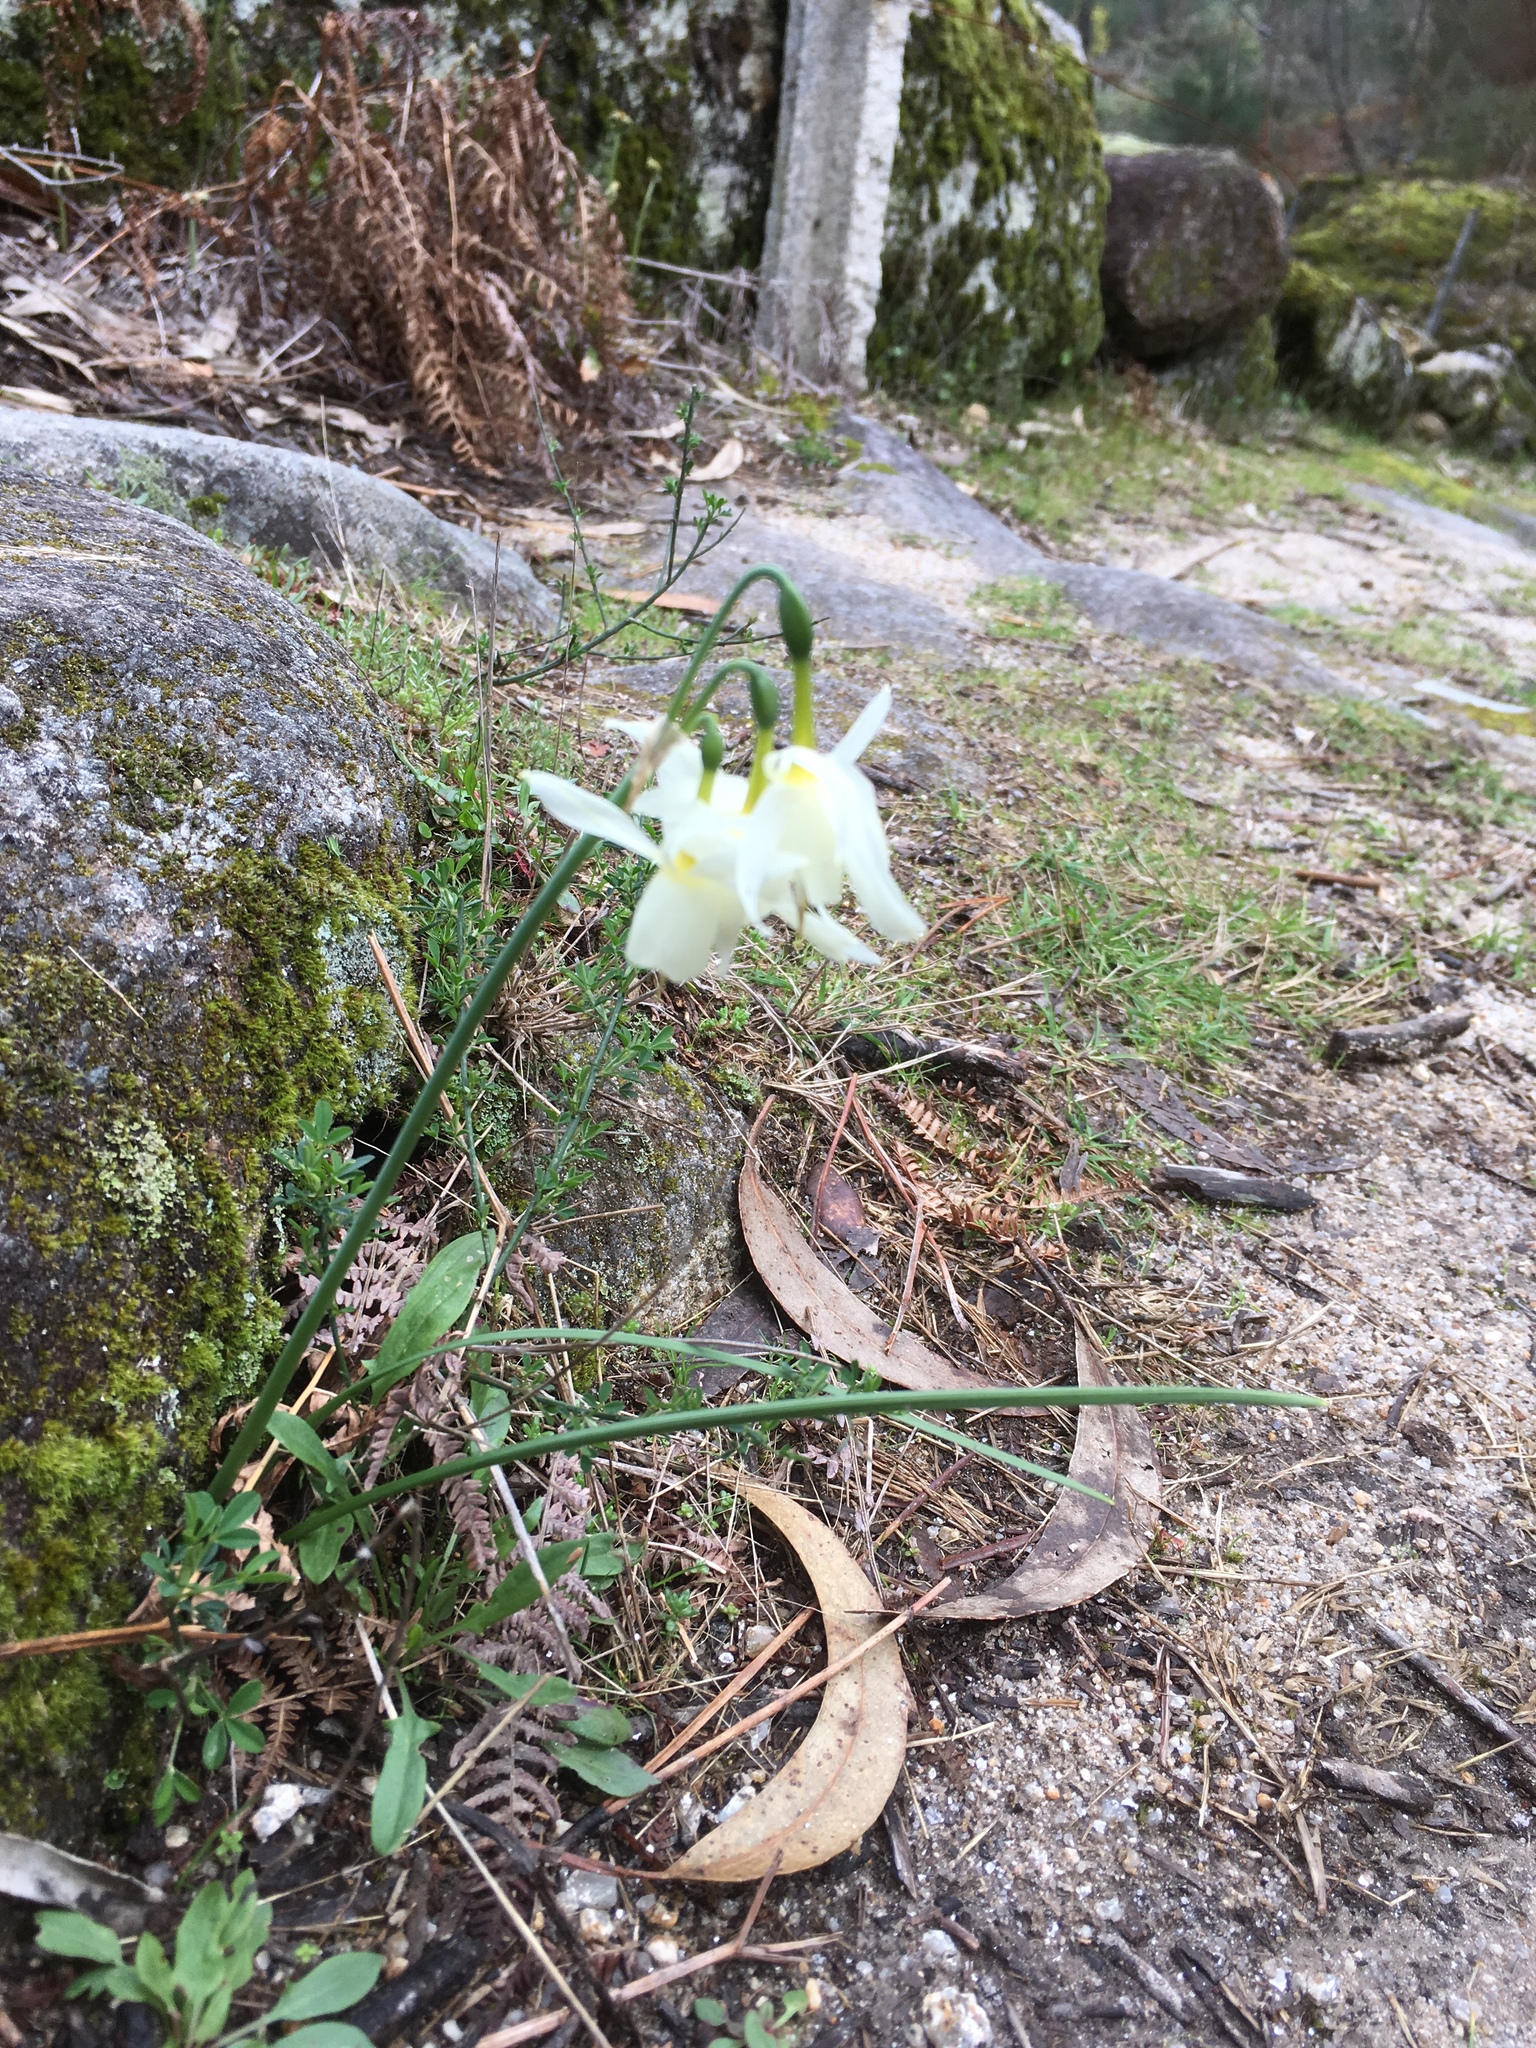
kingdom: Plantae
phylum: Tracheophyta
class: Liliopsida
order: Asparagales
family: Amaryllidaceae
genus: Narcissus
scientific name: Narcissus triandrus
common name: Angel's-tears
